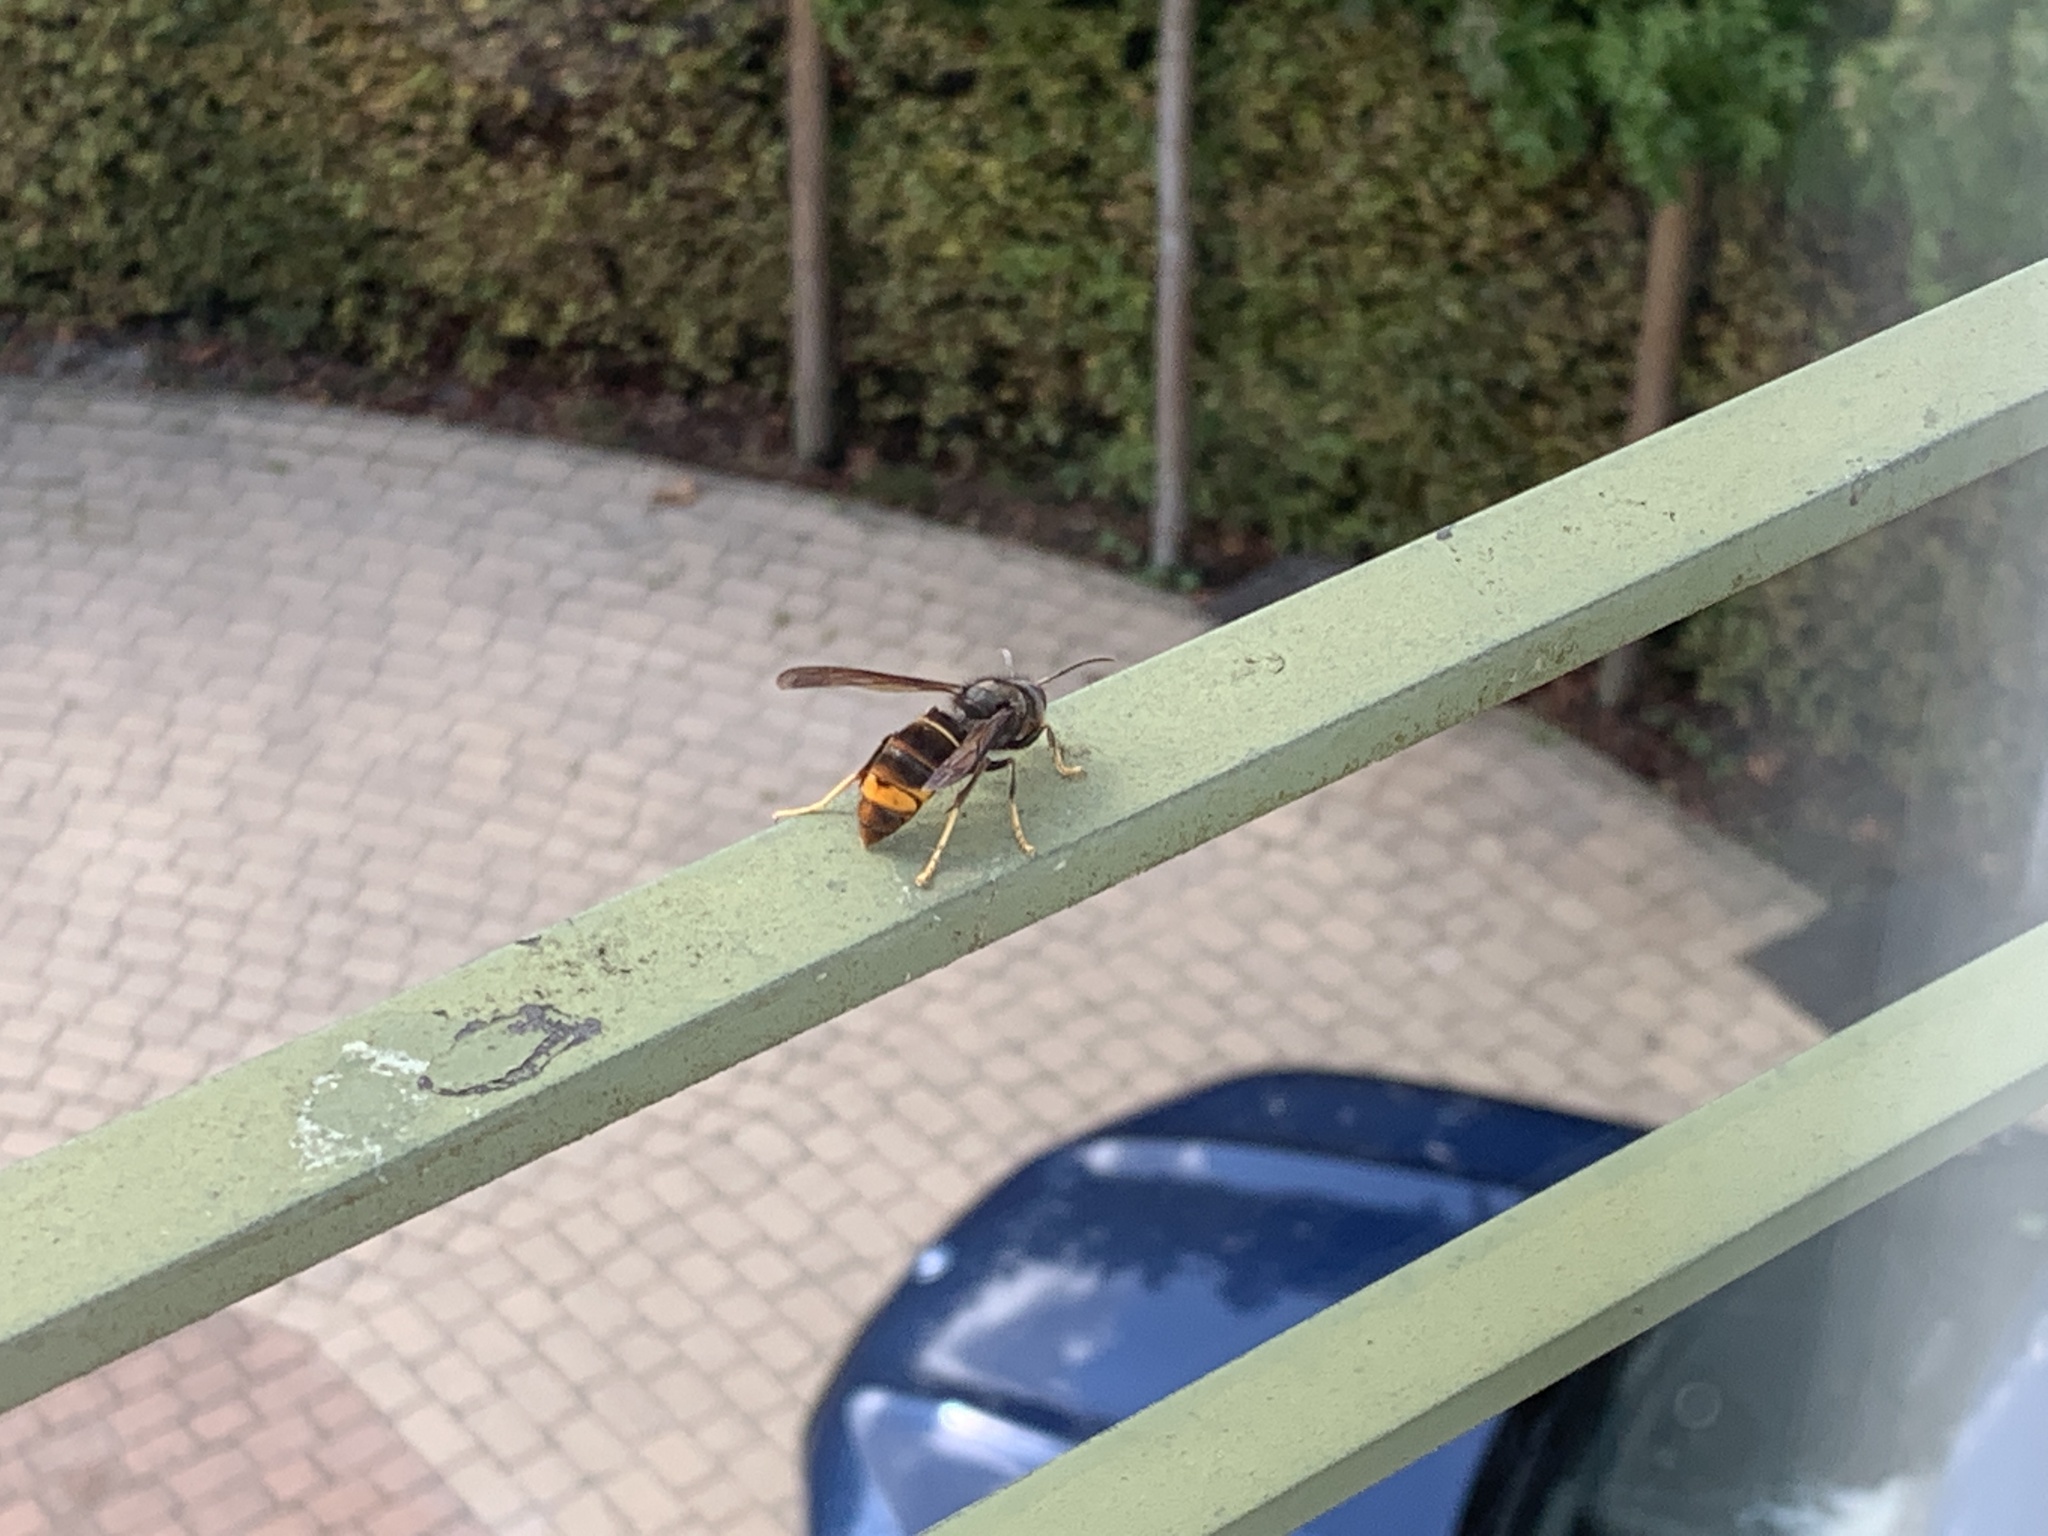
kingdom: Animalia
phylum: Arthropoda
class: Insecta
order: Hymenoptera
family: Vespidae
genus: Vespa
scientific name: Vespa velutina
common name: Asian hornet
